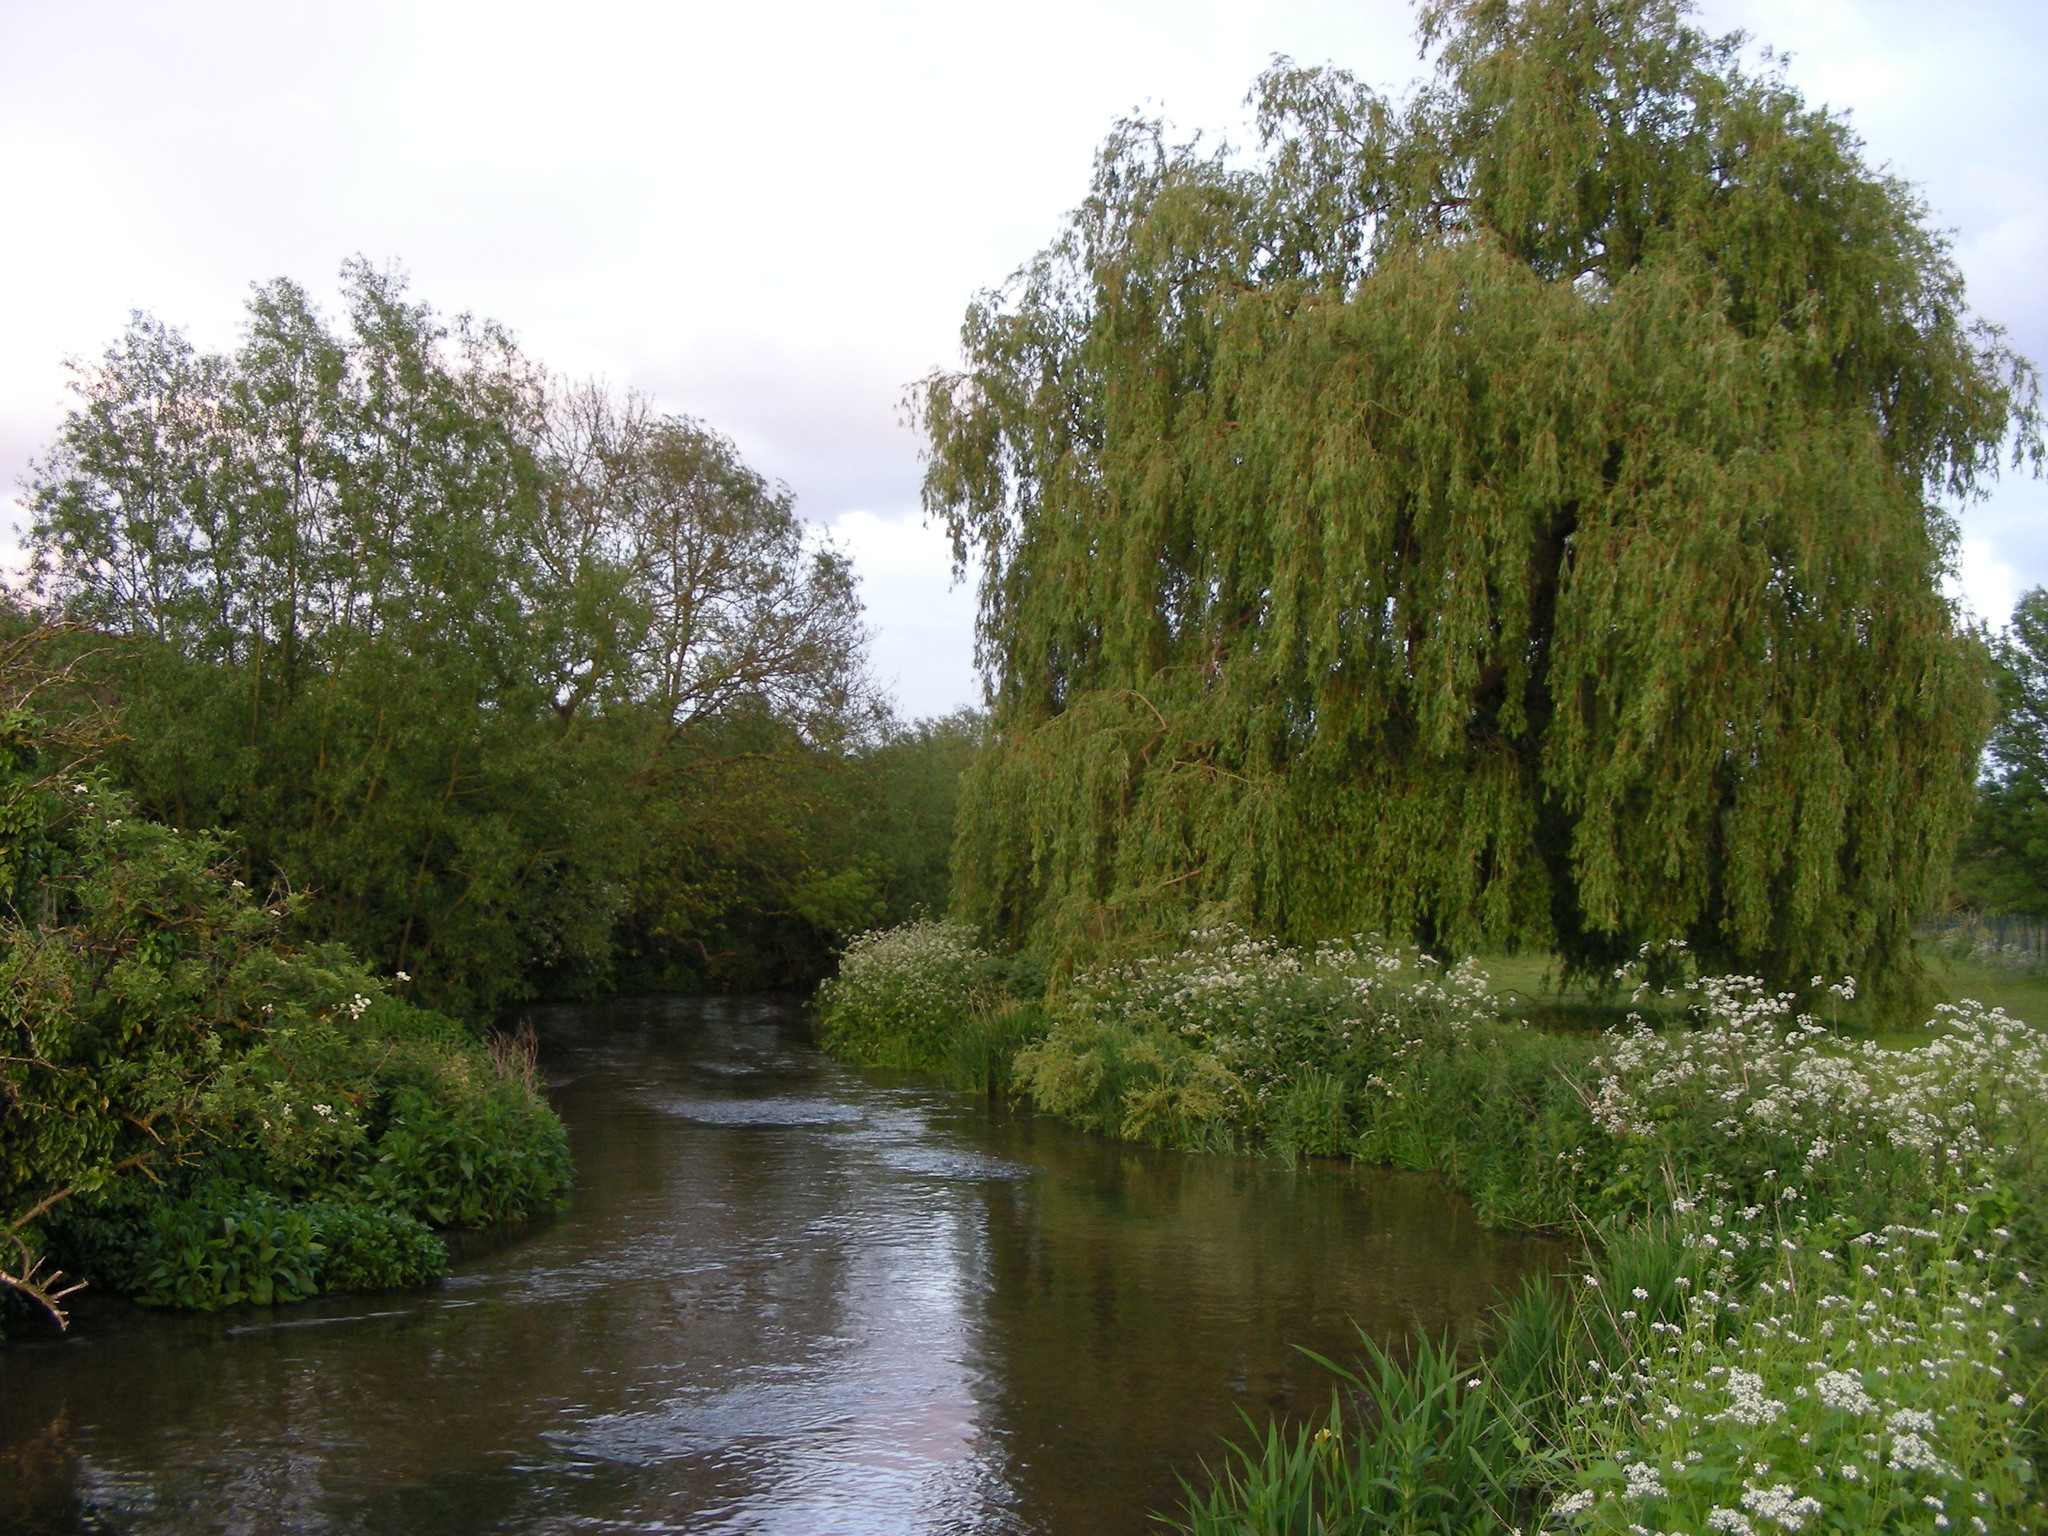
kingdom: Plantae
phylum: Tracheophyta
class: Magnoliopsida
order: Malpighiales
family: Salicaceae
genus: Salix
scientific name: Salix pendulina
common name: Wisconsin weeping willow
